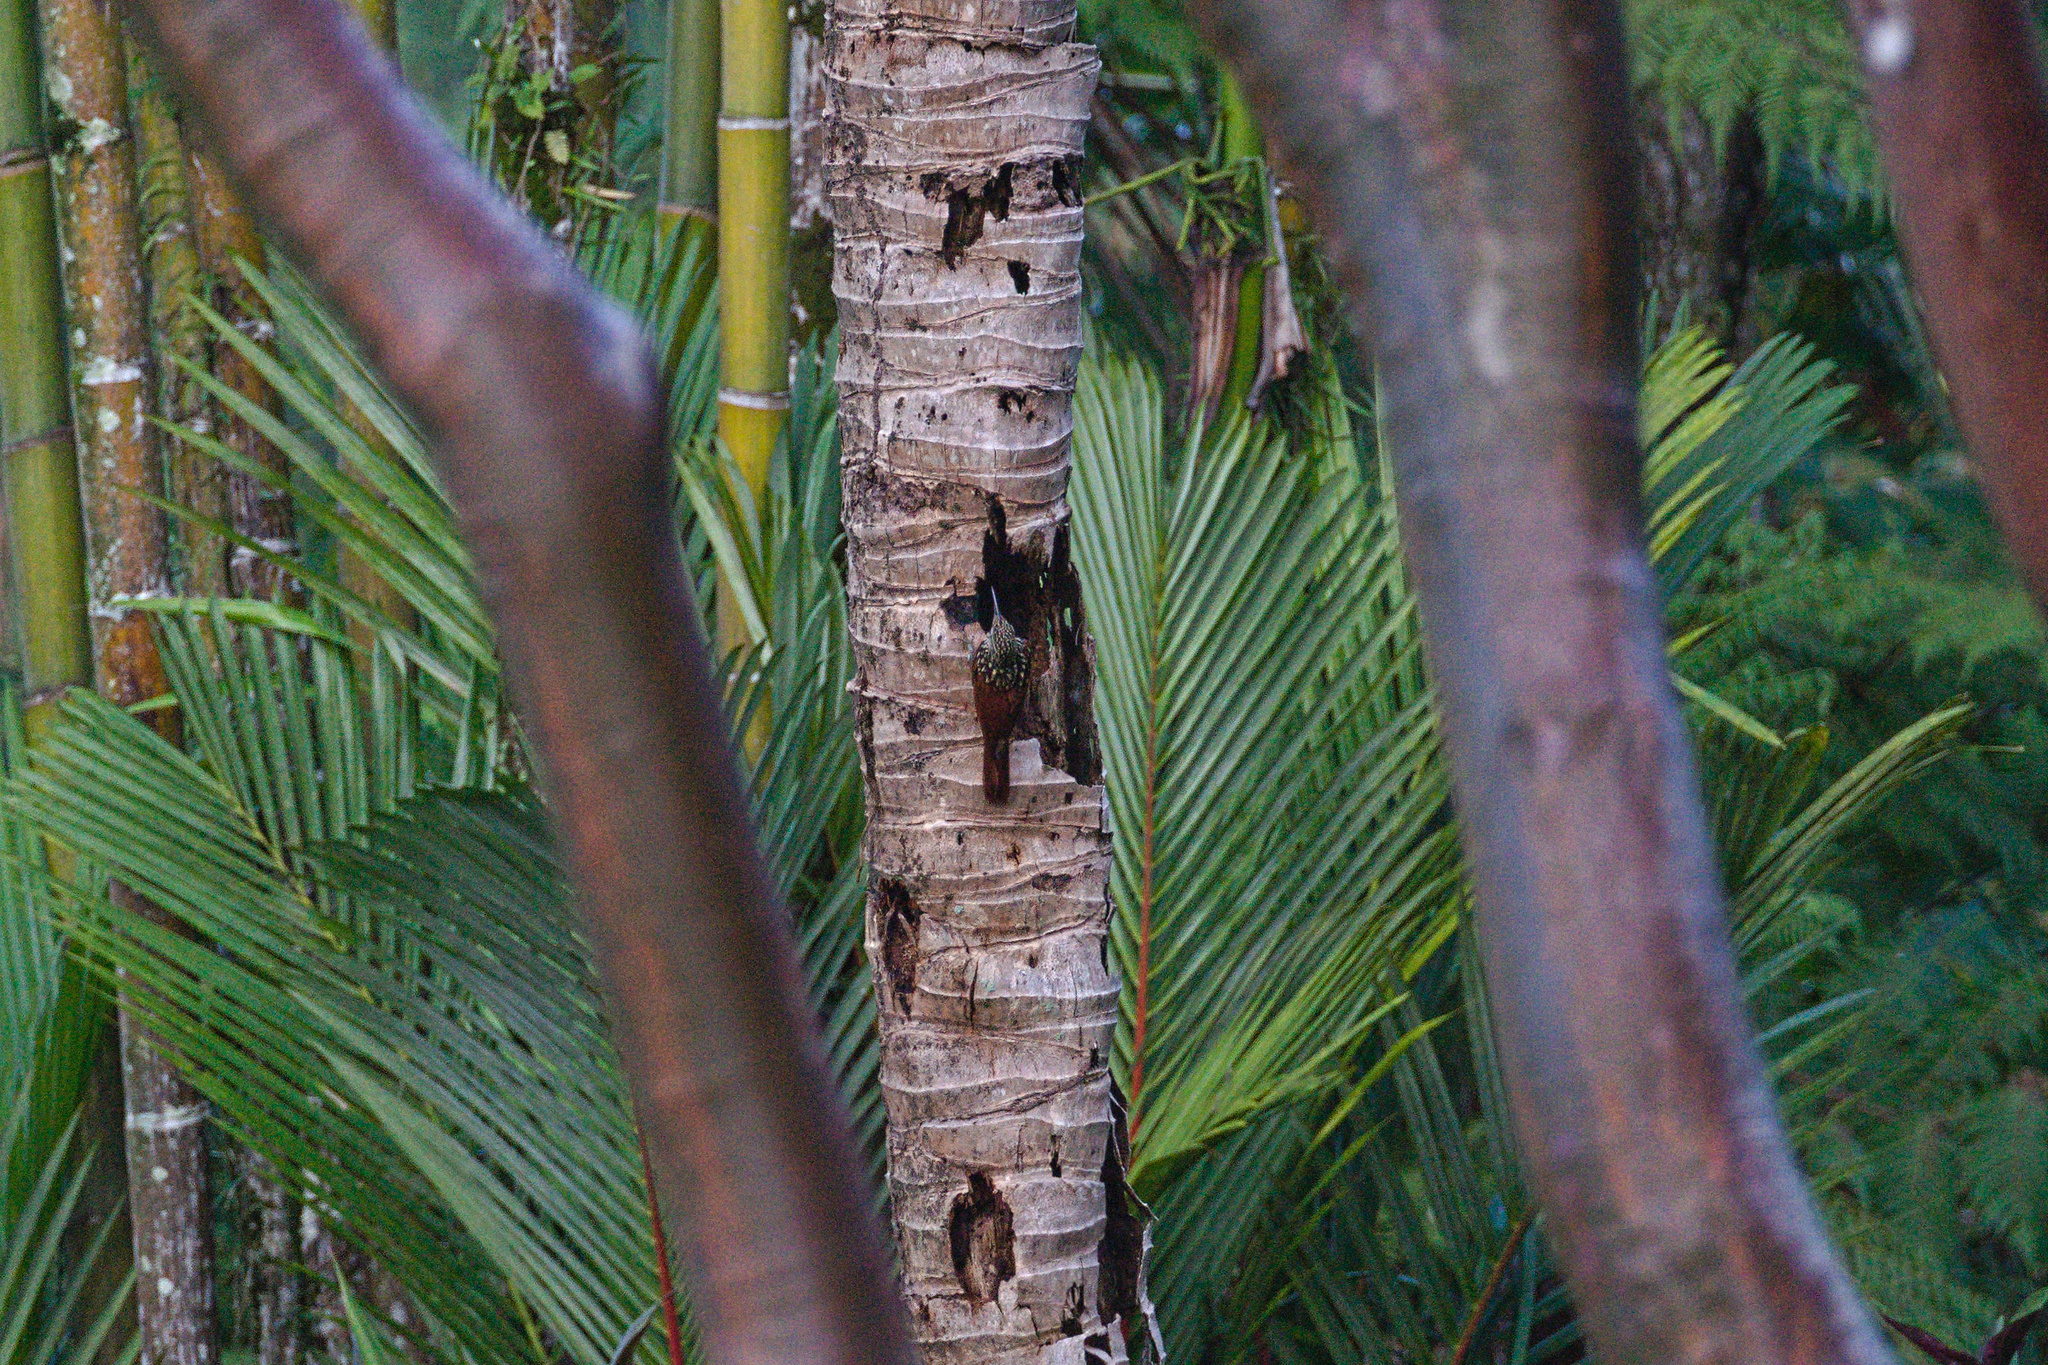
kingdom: Animalia
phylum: Chordata
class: Aves
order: Passeriformes
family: Furnariidae
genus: Xiphorhynchus
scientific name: Xiphorhynchus lachrymosus
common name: Black-striped woodcreeper
